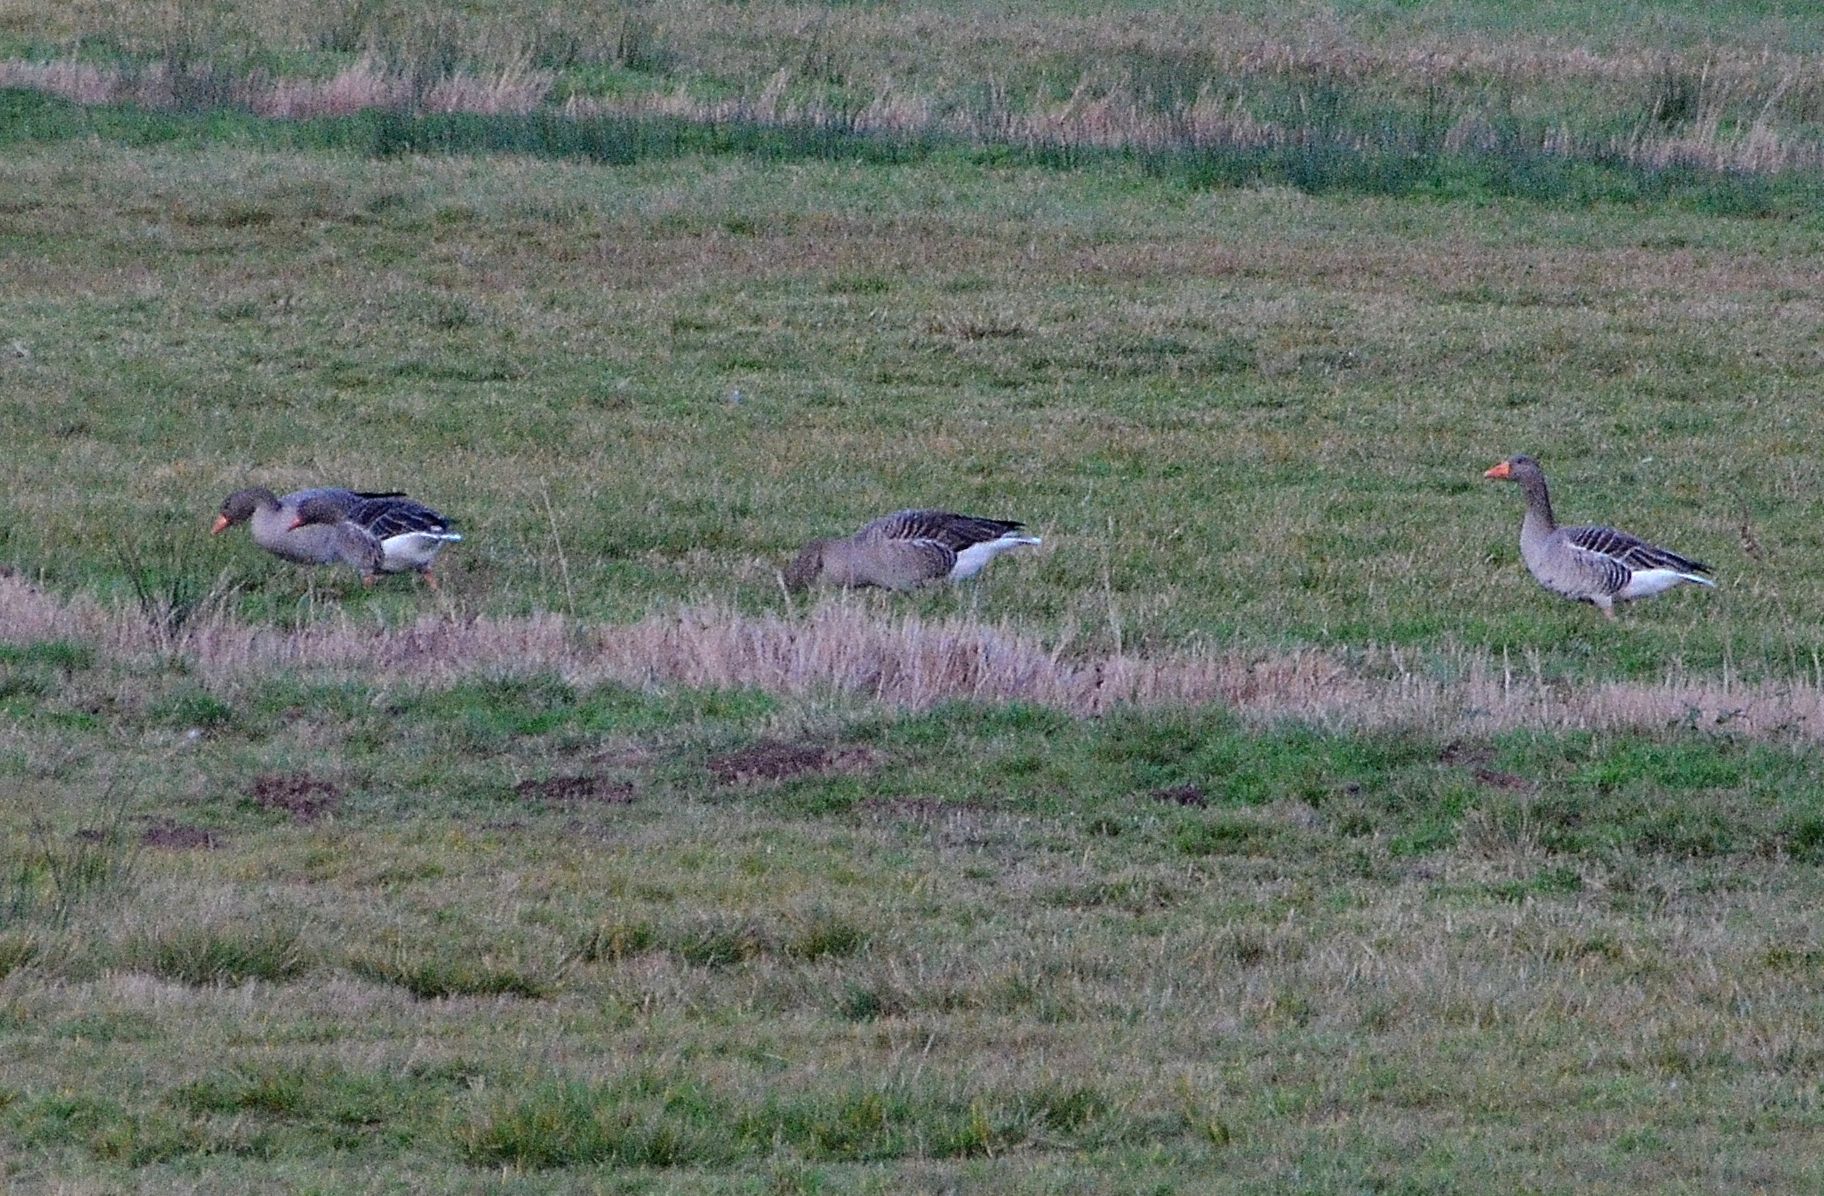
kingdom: Animalia
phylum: Chordata
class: Aves
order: Anseriformes
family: Anatidae
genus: Anser
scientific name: Anser anser
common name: Greylag goose
